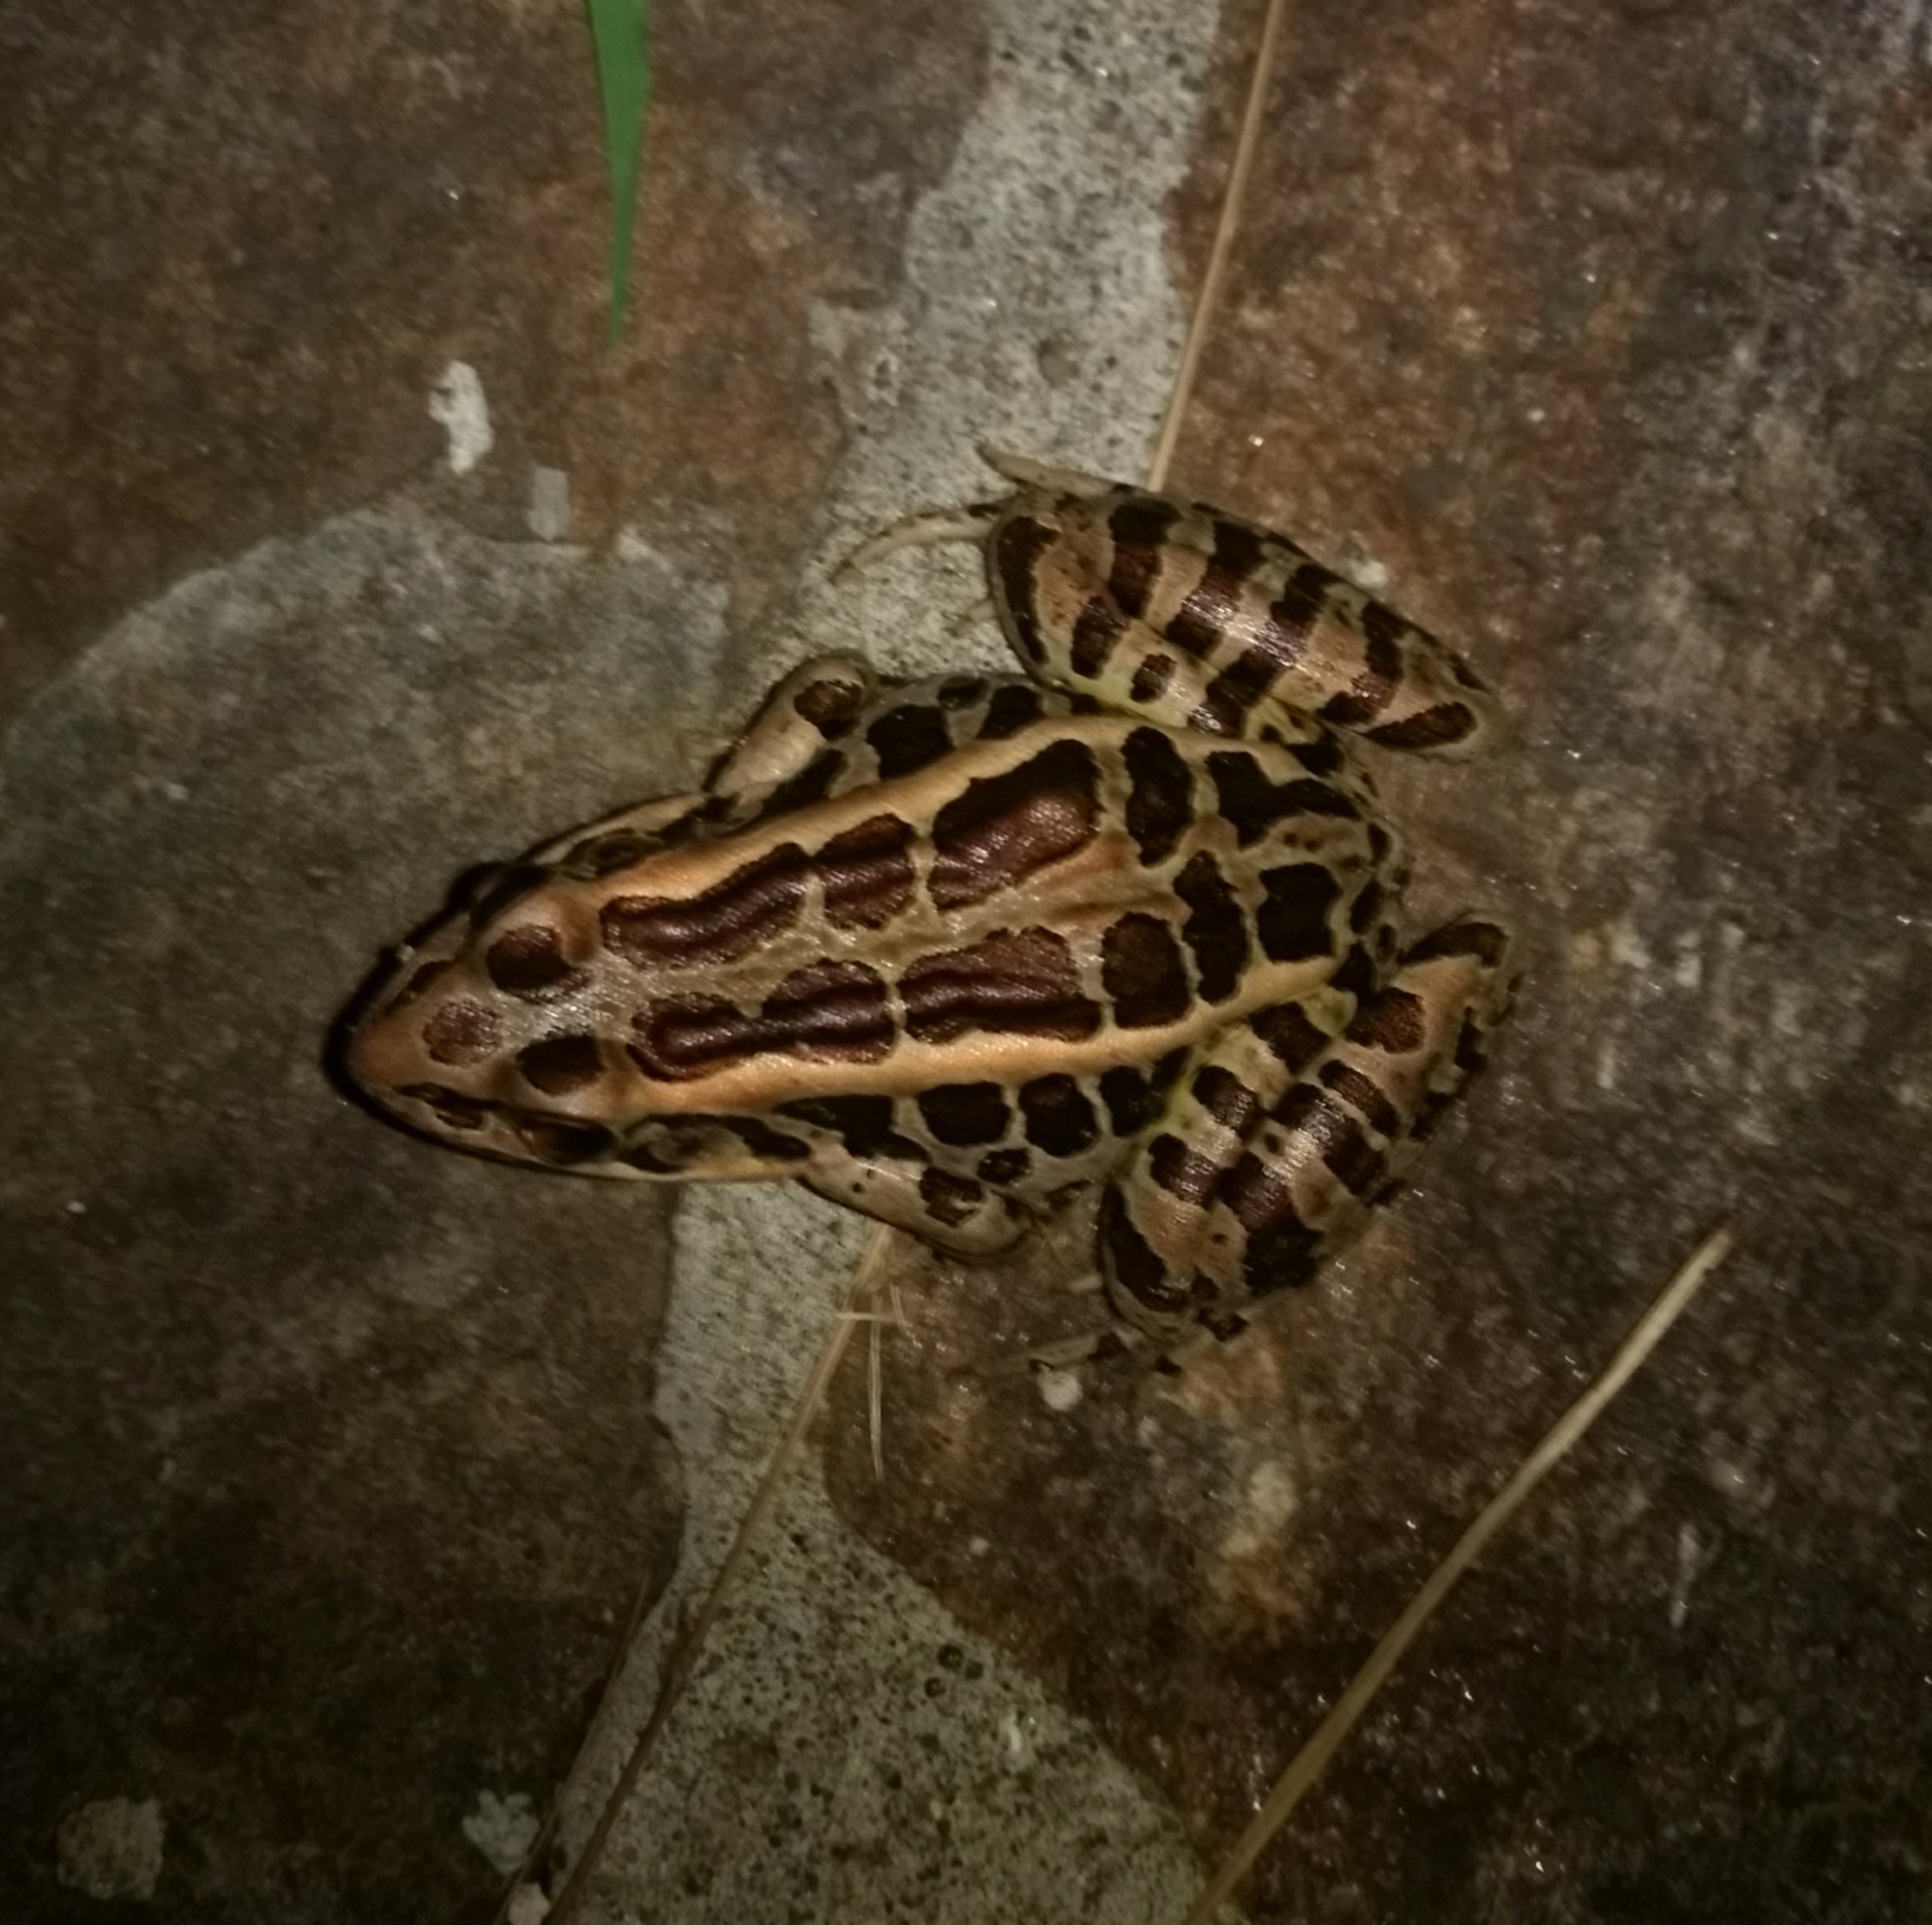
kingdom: Animalia
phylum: Chordata
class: Amphibia
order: Anura
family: Ranidae
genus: Lithobates
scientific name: Lithobates palustris
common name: Pickerel frog
